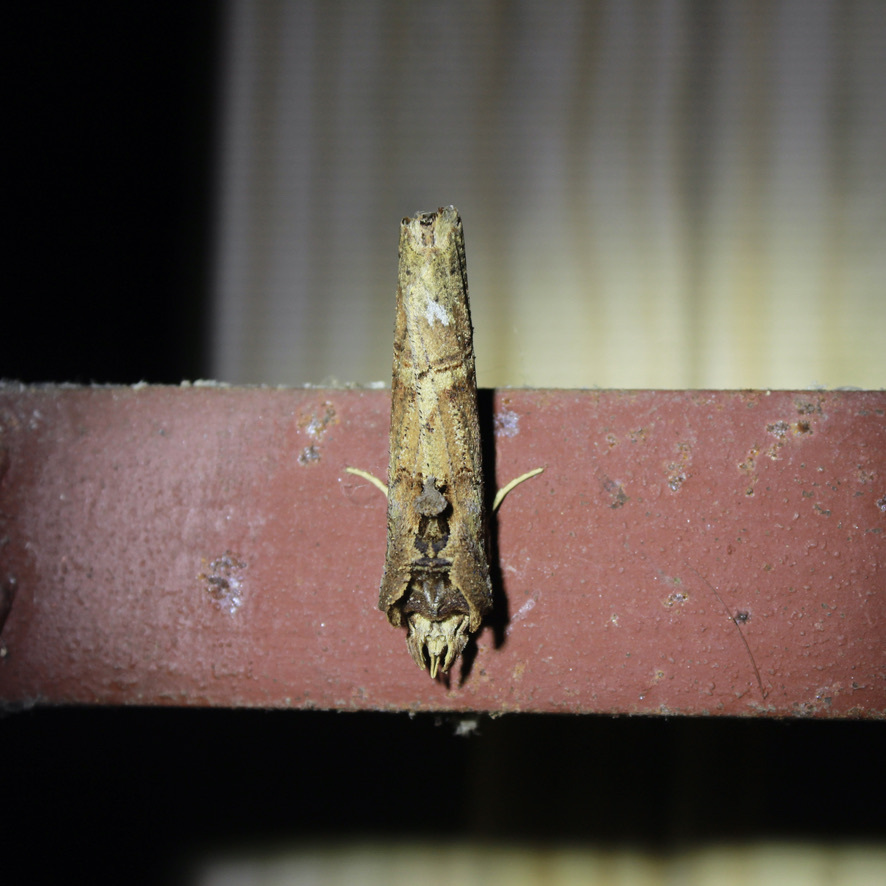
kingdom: Animalia
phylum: Arthropoda
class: Insecta
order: Lepidoptera
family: Notodontidae
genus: Bardaxima
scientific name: Bardaxima marcida
